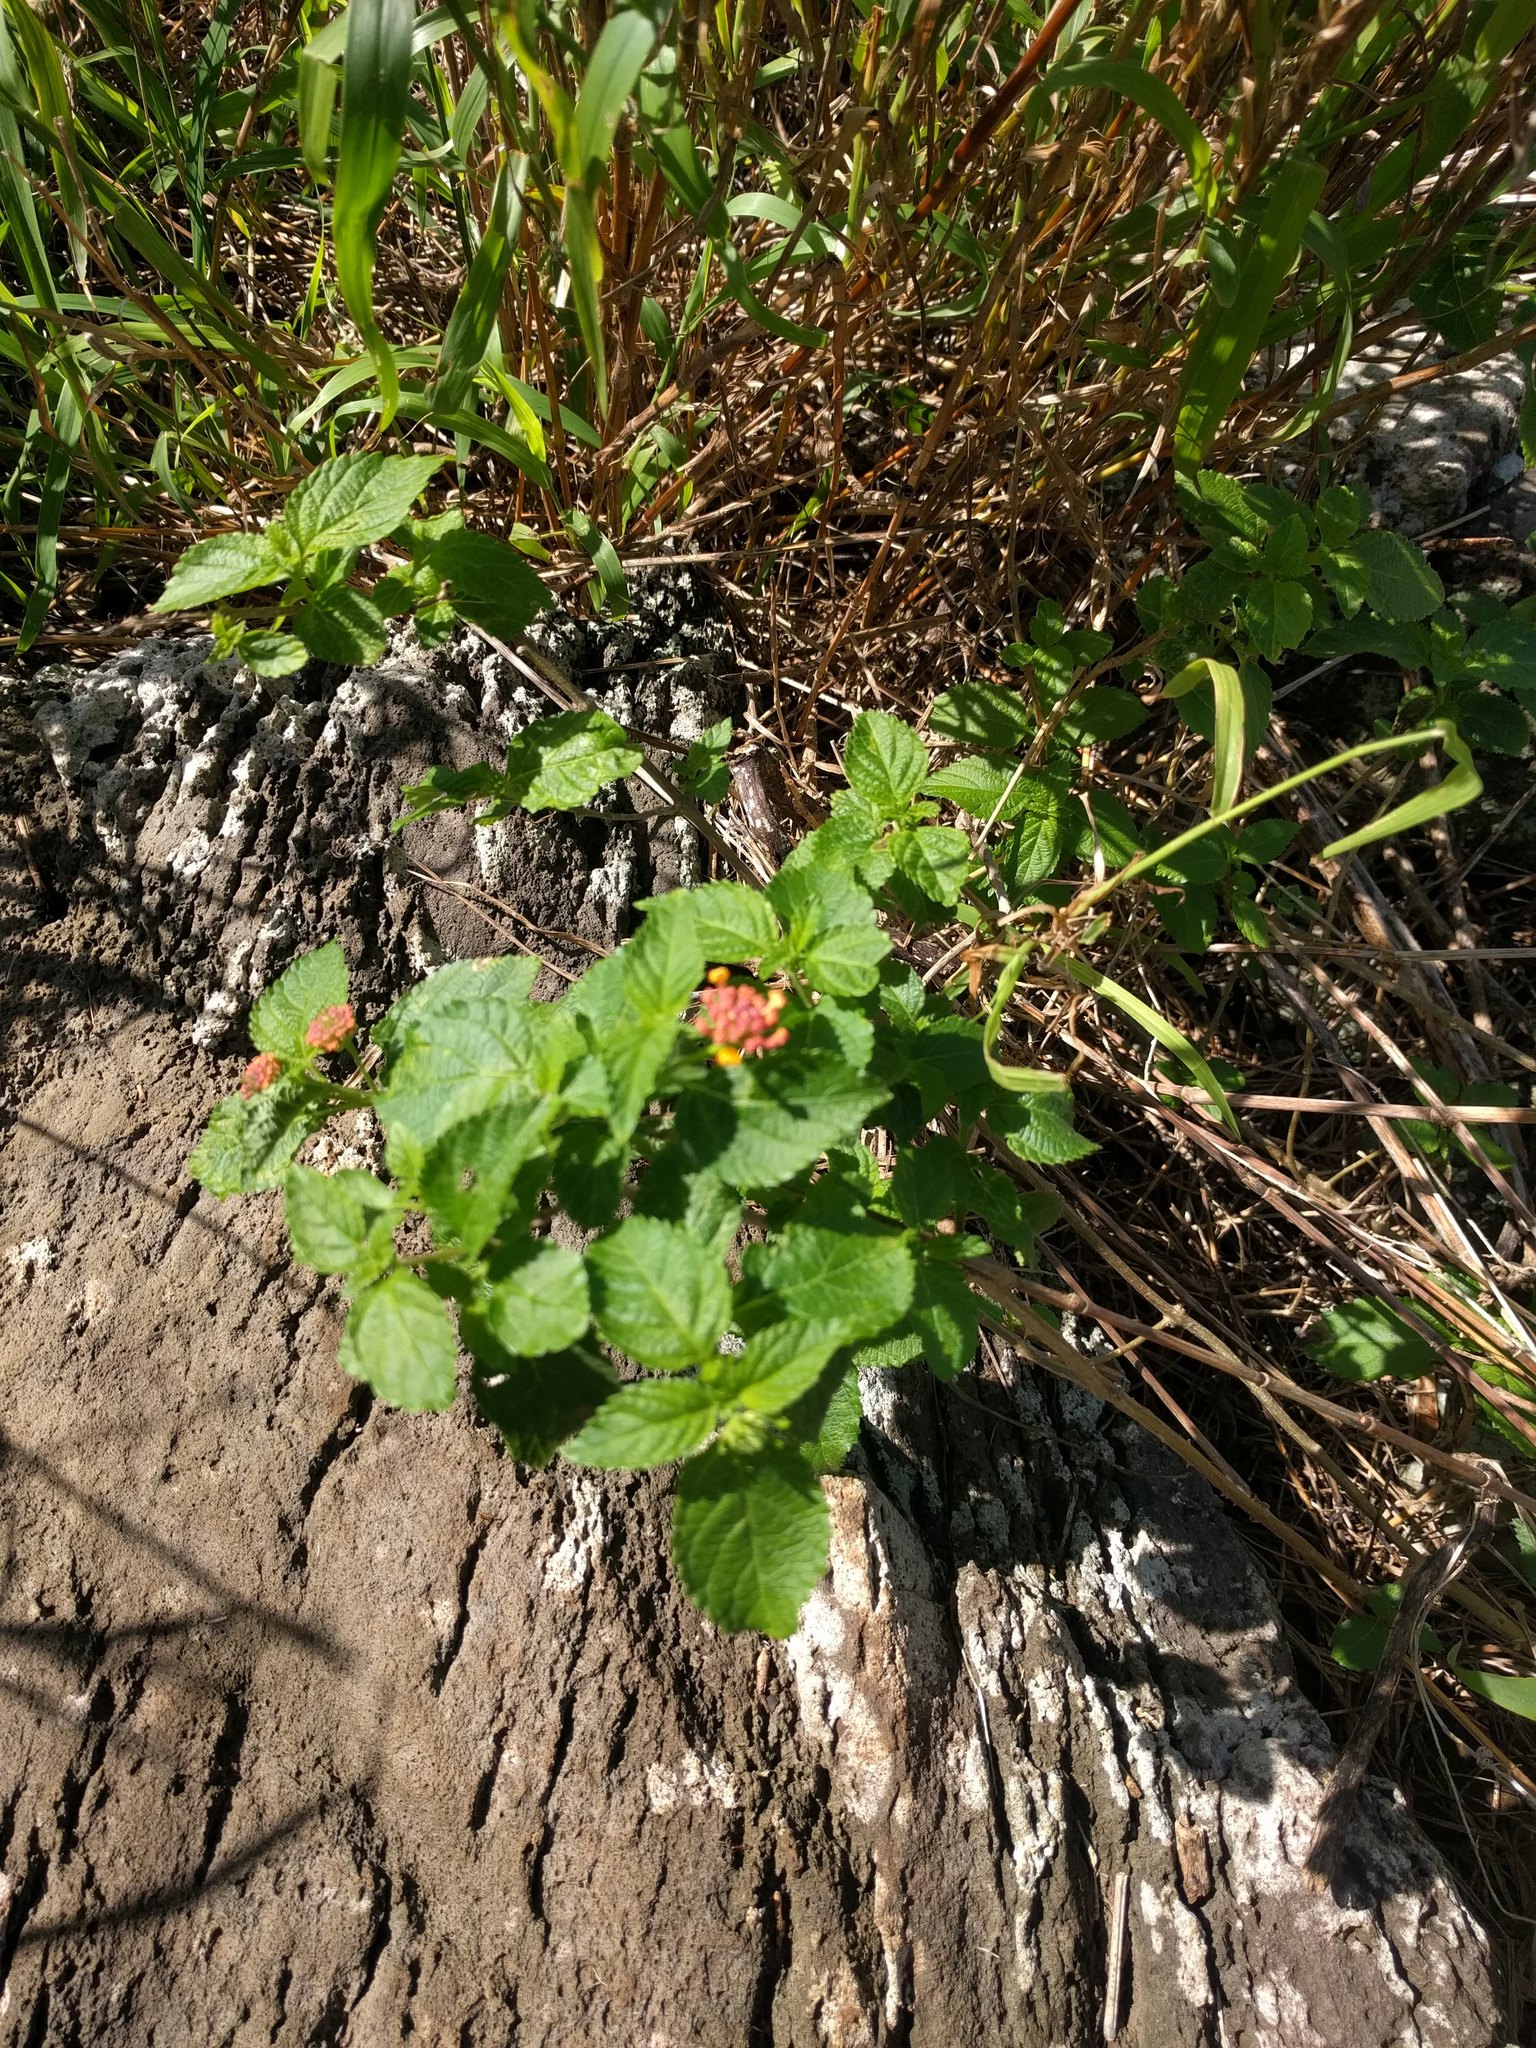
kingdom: Plantae
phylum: Tracheophyta
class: Magnoliopsida
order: Lamiales
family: Verbenaceae
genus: Lantana
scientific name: Lantana camara
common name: Lantana
